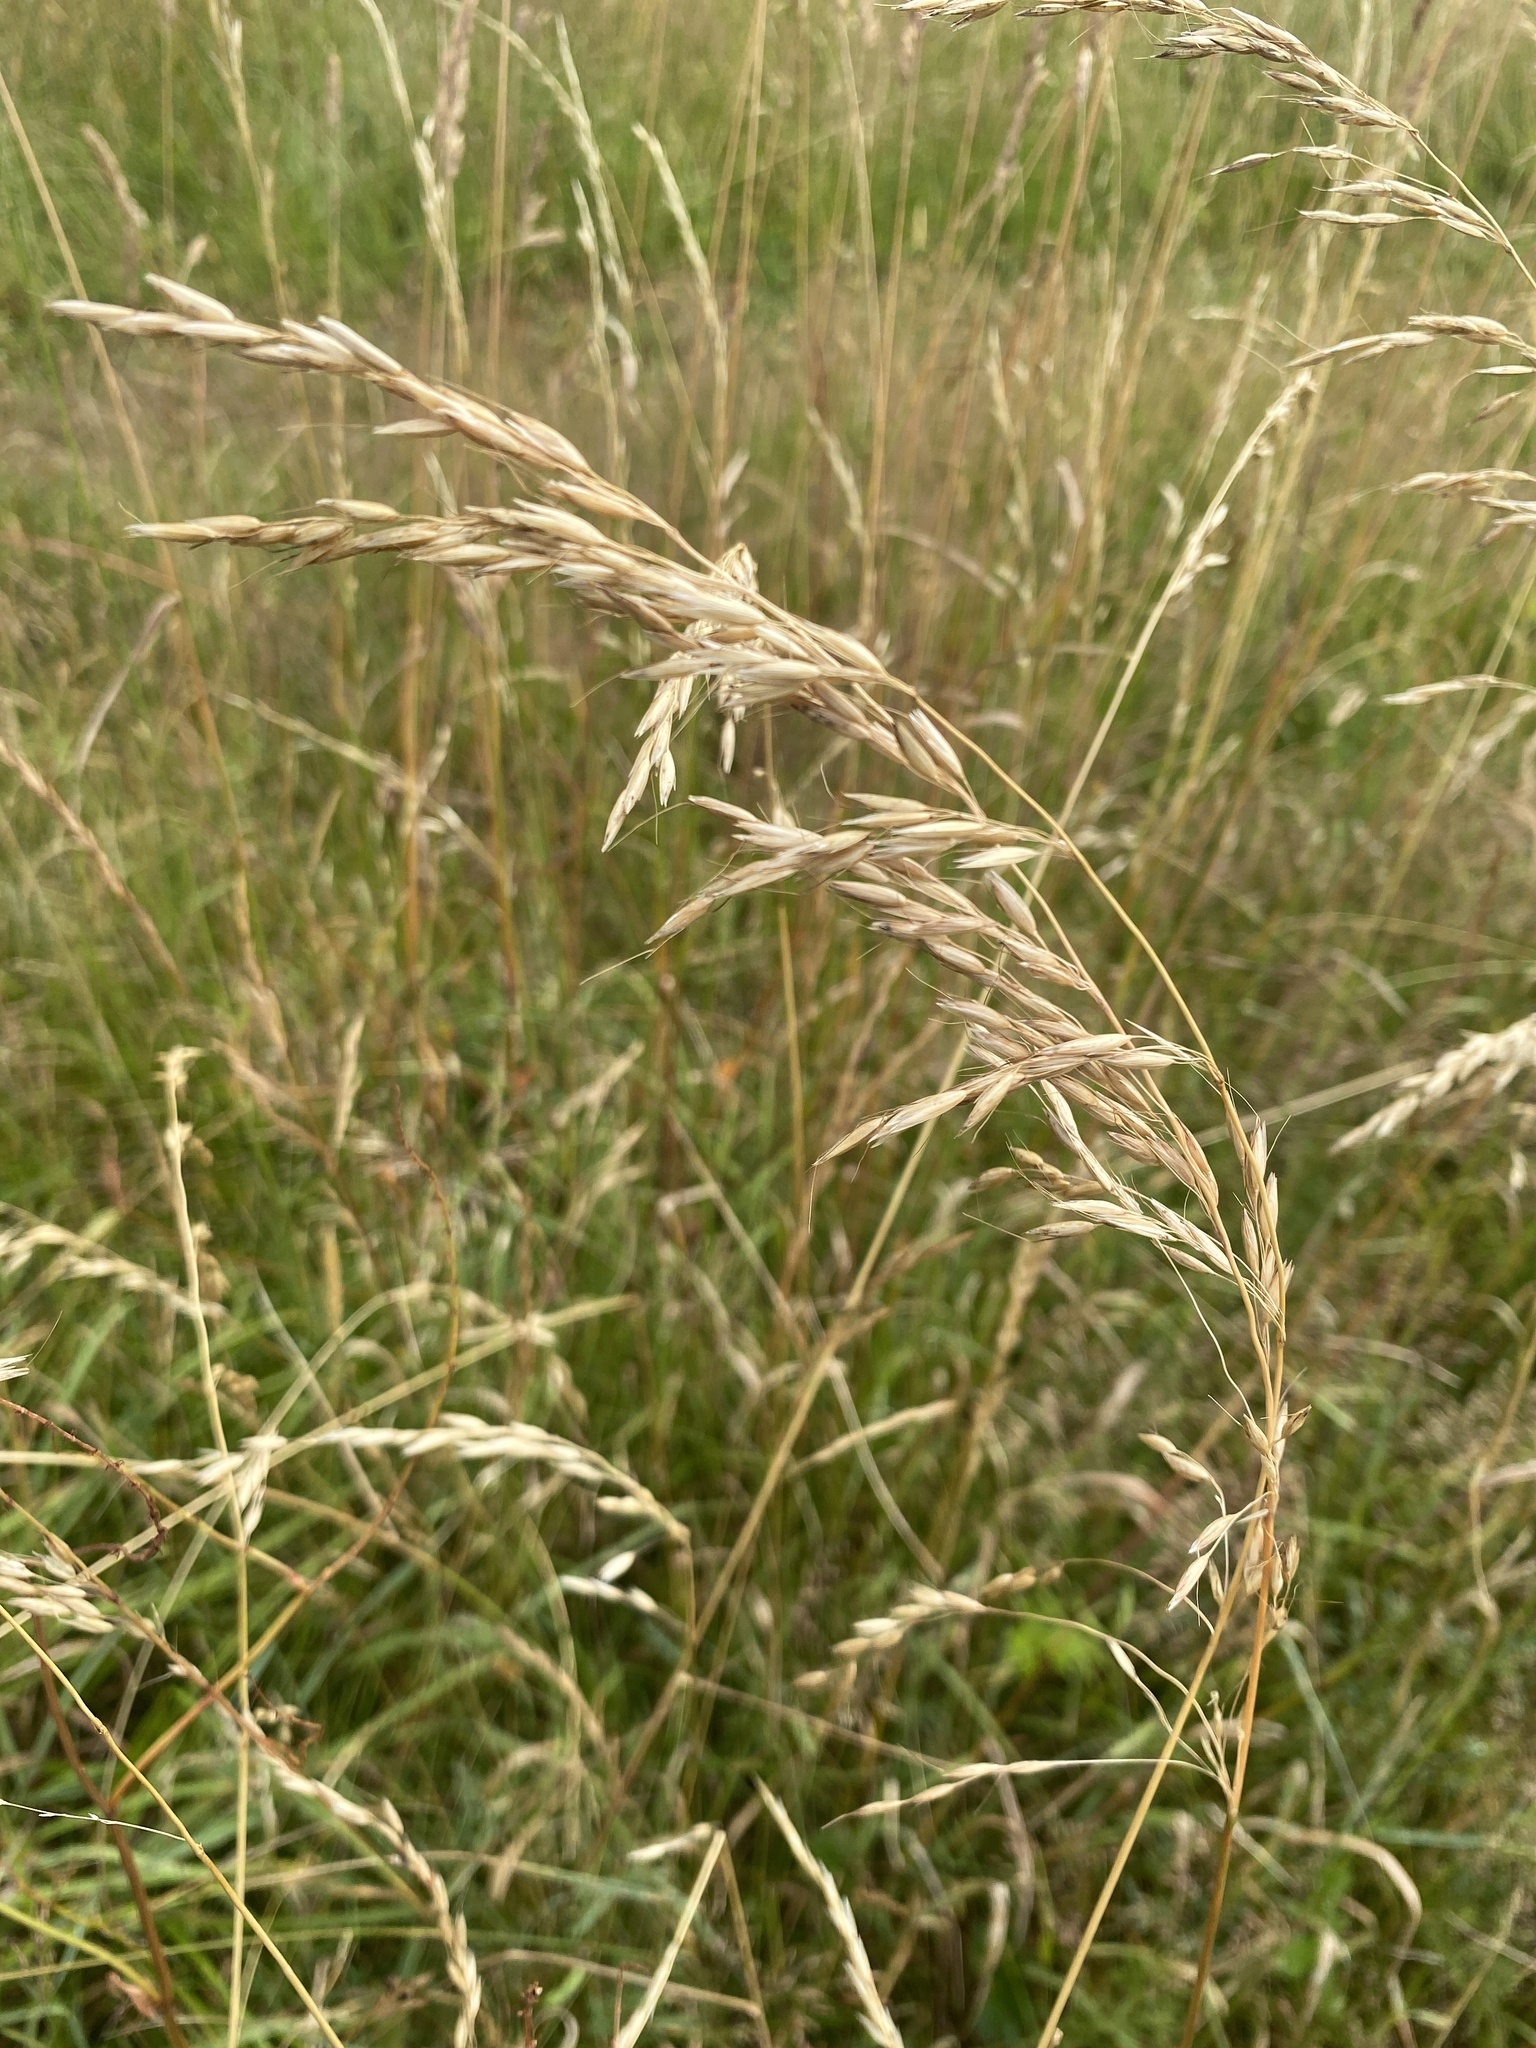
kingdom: Plantae
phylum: Tracheophyta
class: Liliopsida
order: Poales
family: Poaceae
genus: Arrhenatherum
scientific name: Arrhenatherum elatius
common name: Tall oatgrass
